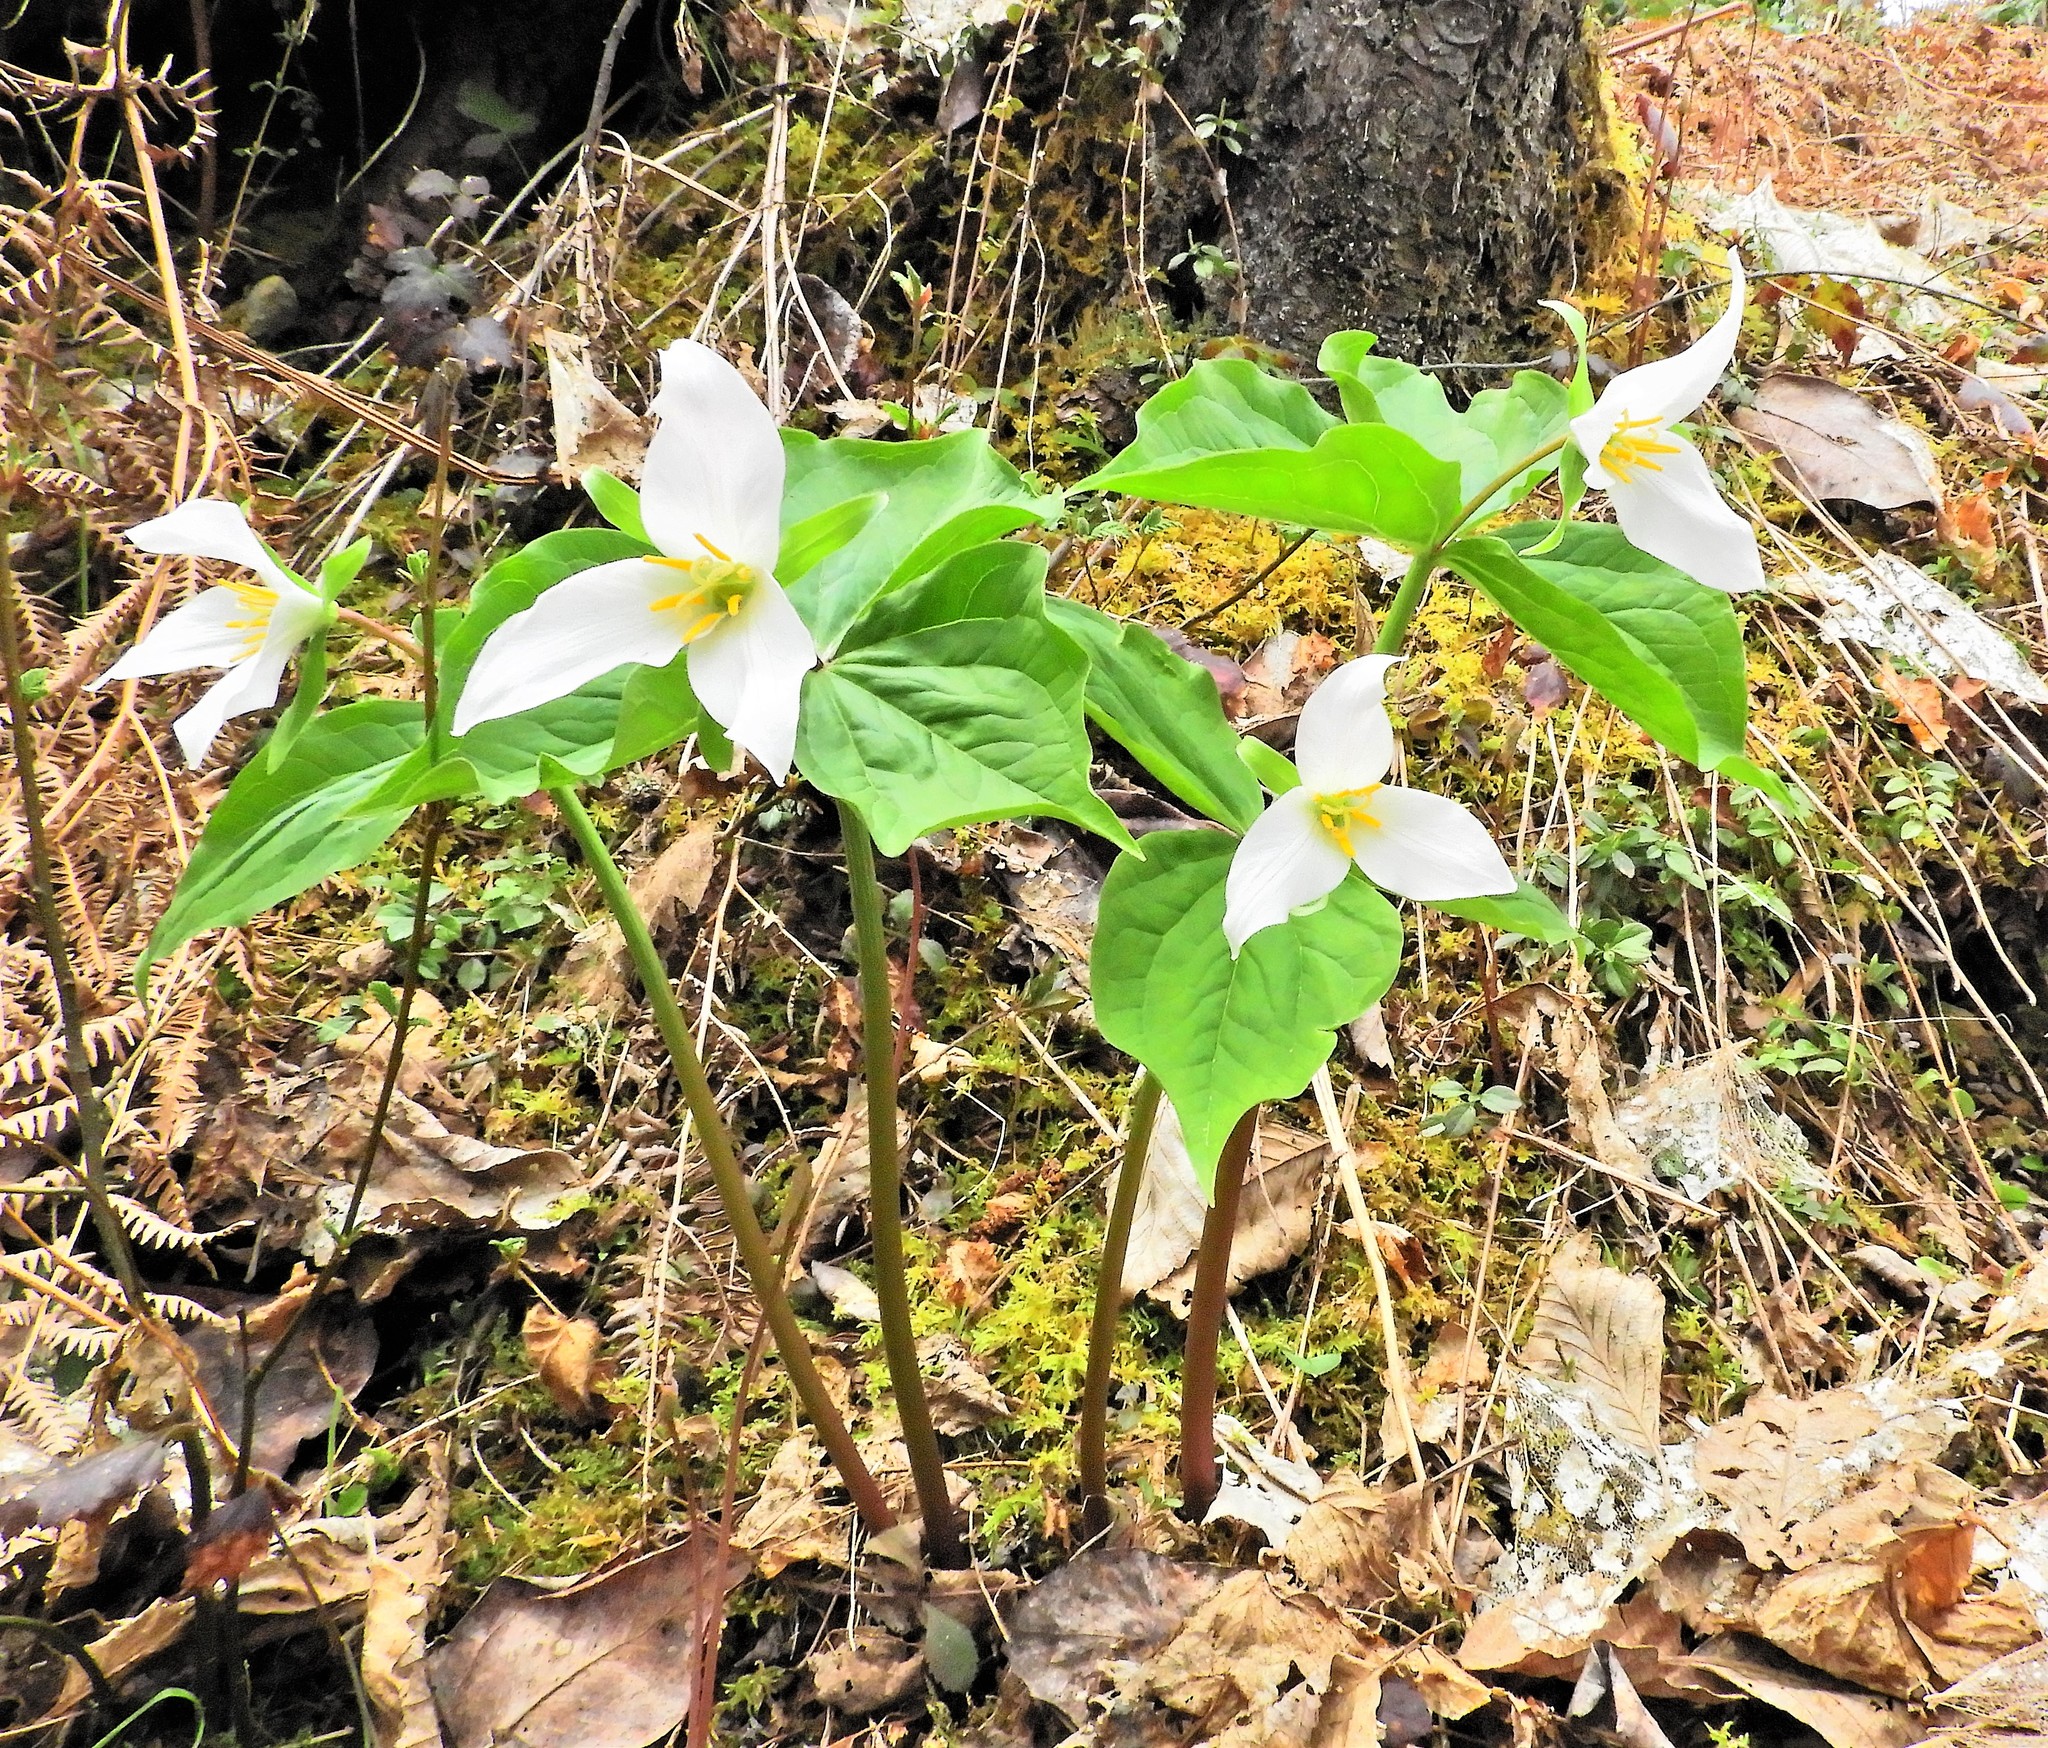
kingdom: Plantae
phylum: Tracheophyta
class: Liliopsida
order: Liliales
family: Melanthiaceae
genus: Trillium
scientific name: Trillium ovatum
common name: Pacific trillium
